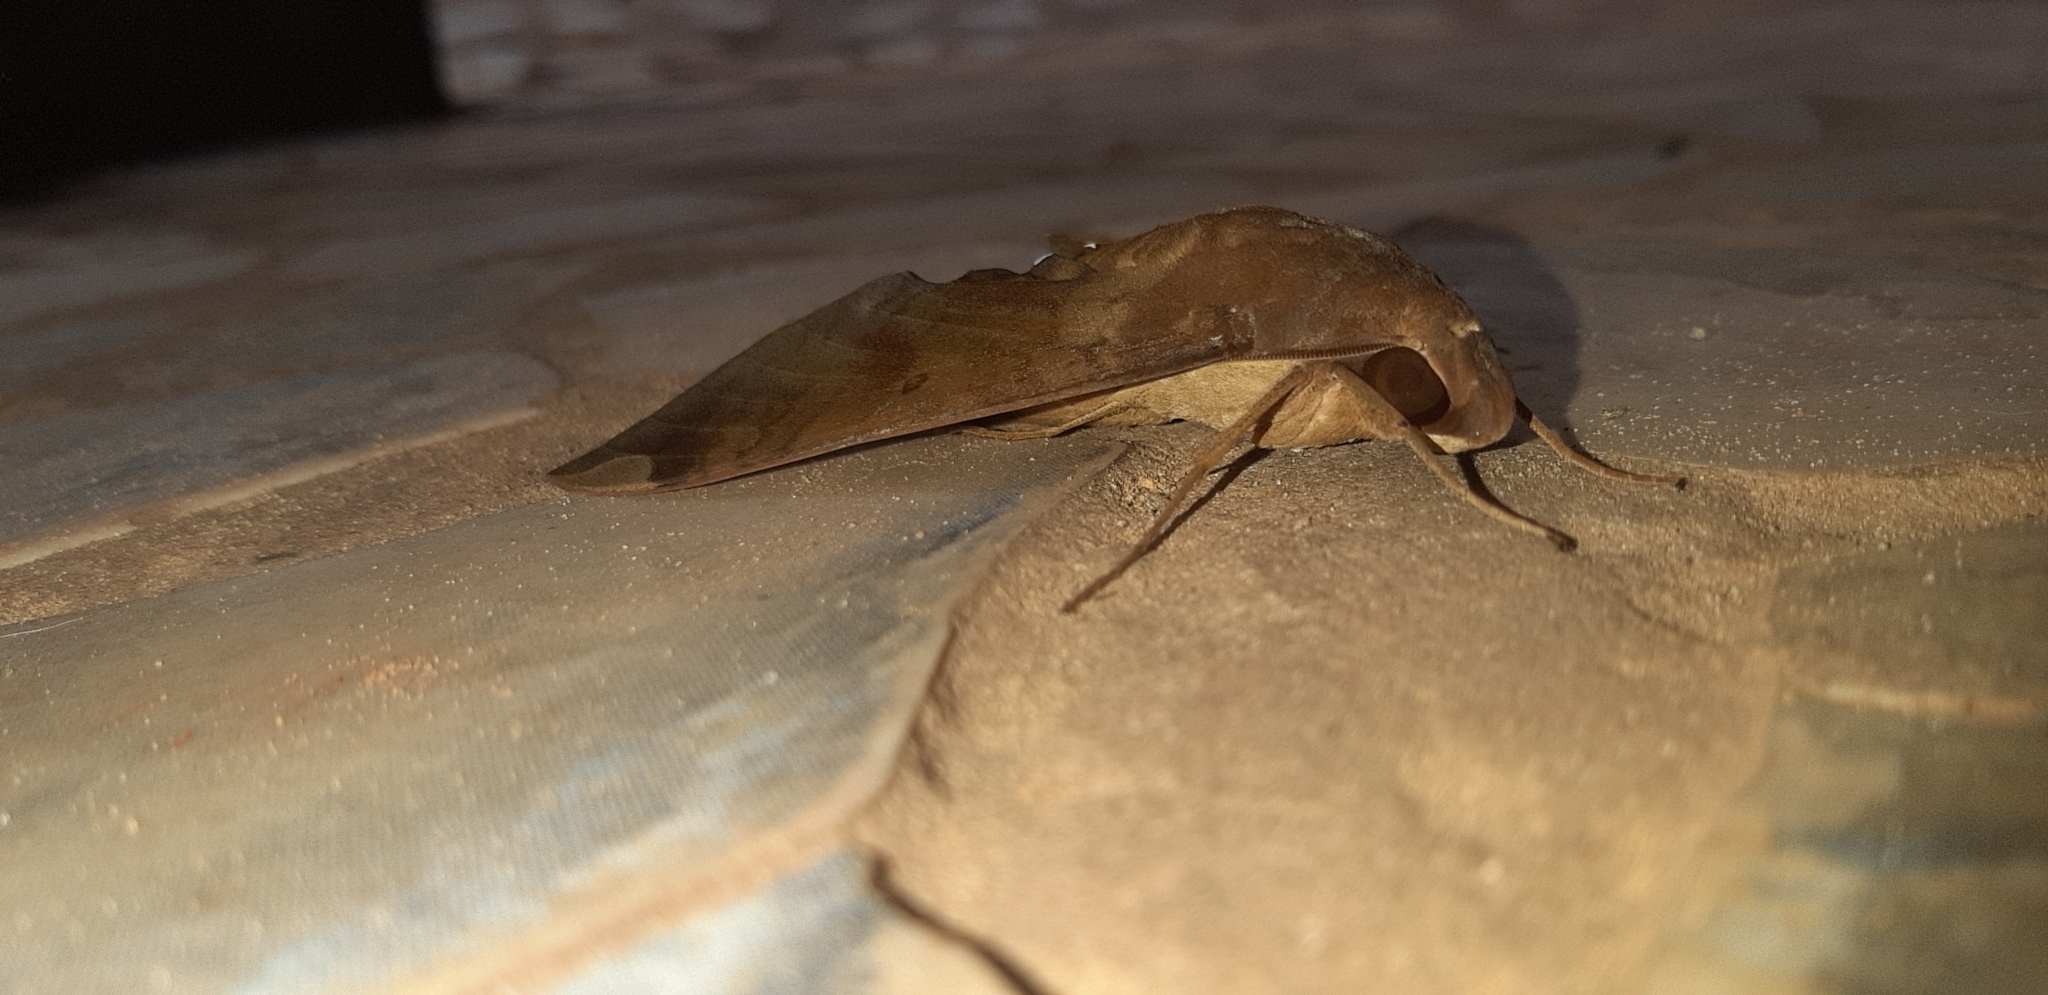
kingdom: Animalia
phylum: Arthropoda
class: Insecta
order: Lepidoptera
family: Sphingidae
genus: Pachylia
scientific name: Pachylia ficus
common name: Fig sphinx
